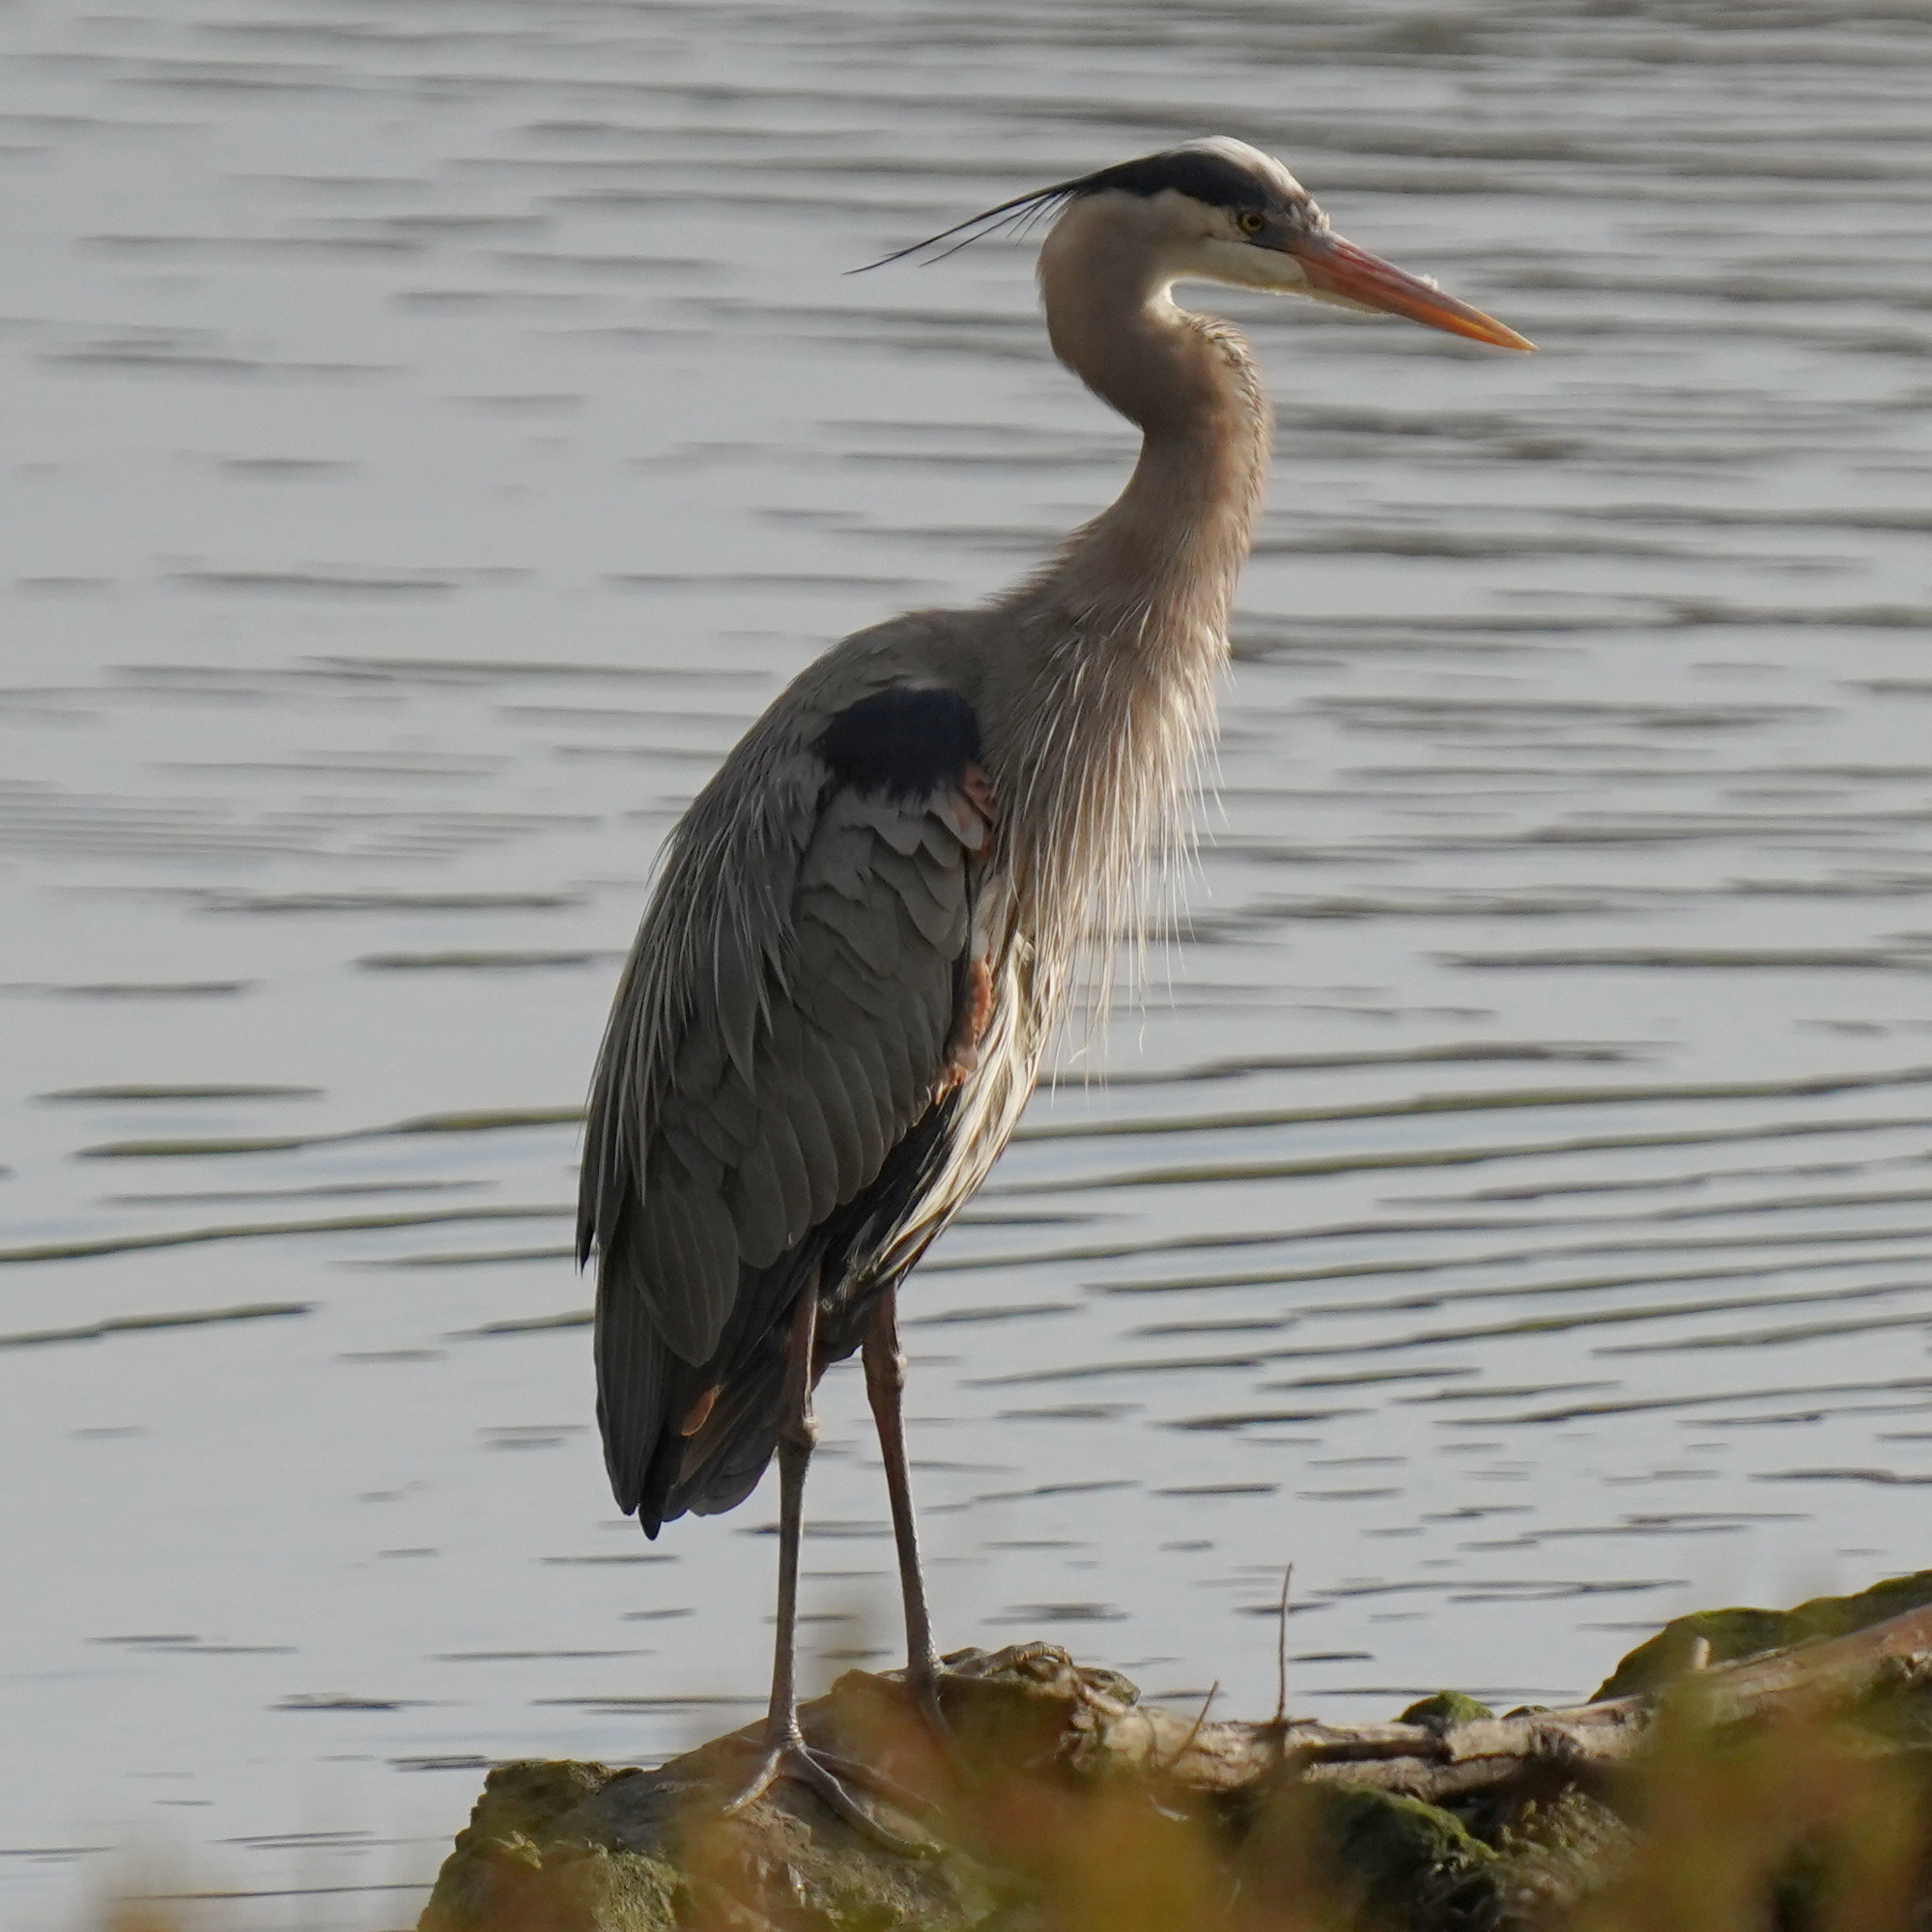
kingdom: Animalia
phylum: Chordata
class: Aves
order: Pelecaniformes
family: Ardeidae
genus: Ardea
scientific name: Ardea herodias
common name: Great blue heron
